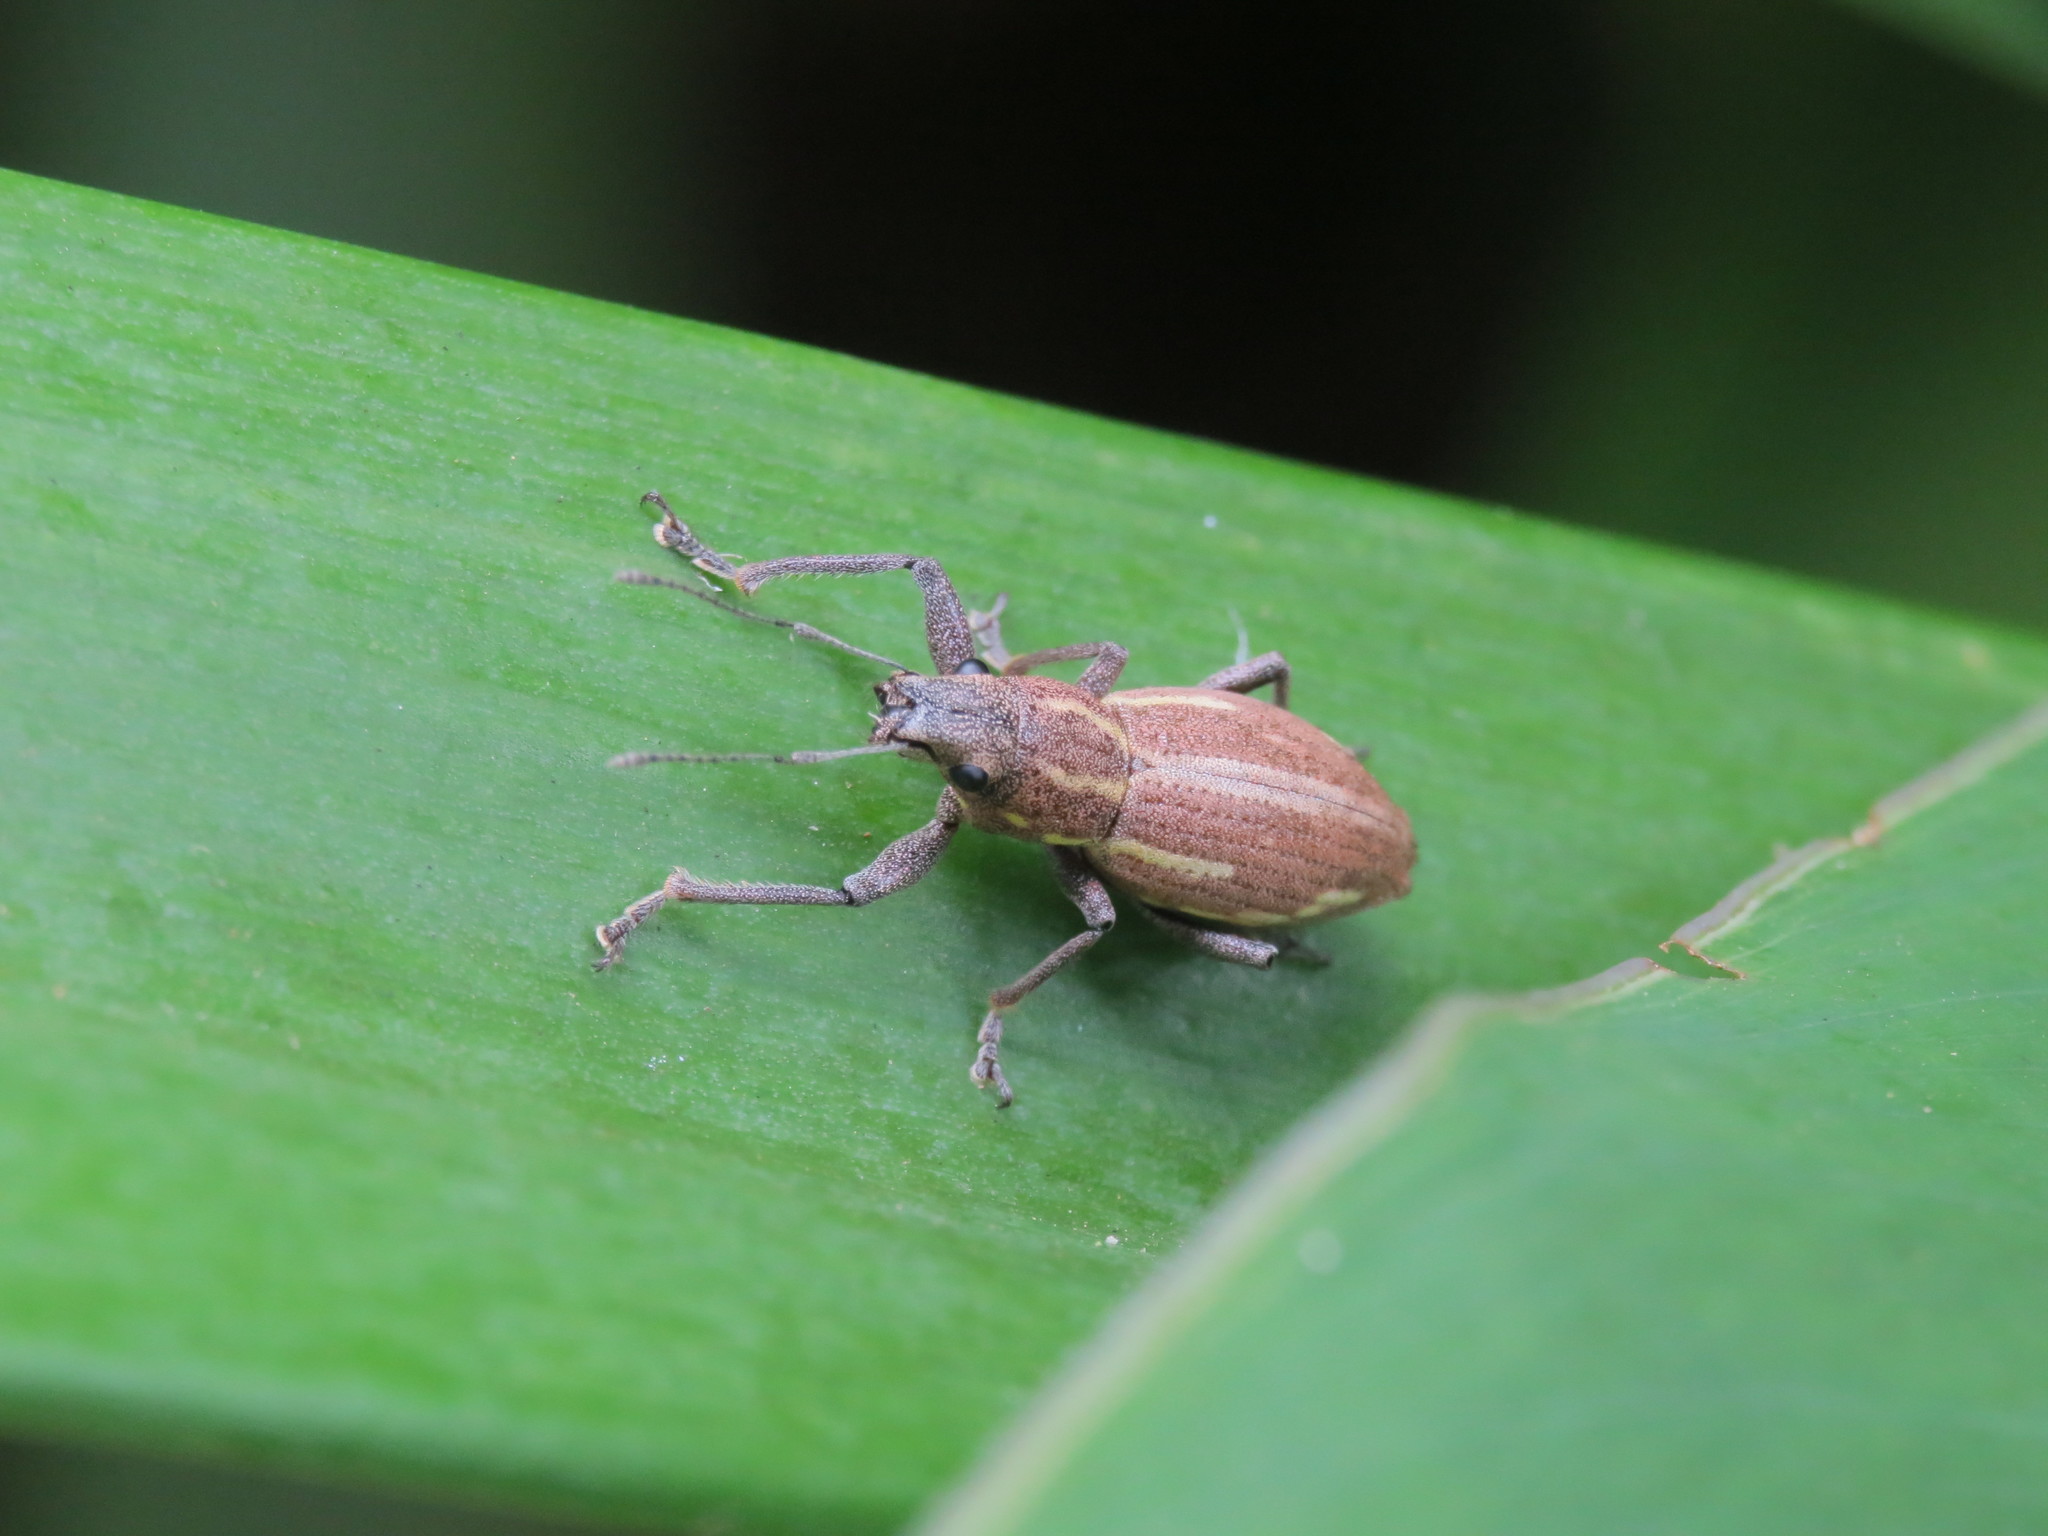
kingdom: Animalia
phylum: Arthropoda
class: Insecta
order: Coleoptera
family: Curculionidae
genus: Naupactus
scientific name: Naupactus xanthographus
